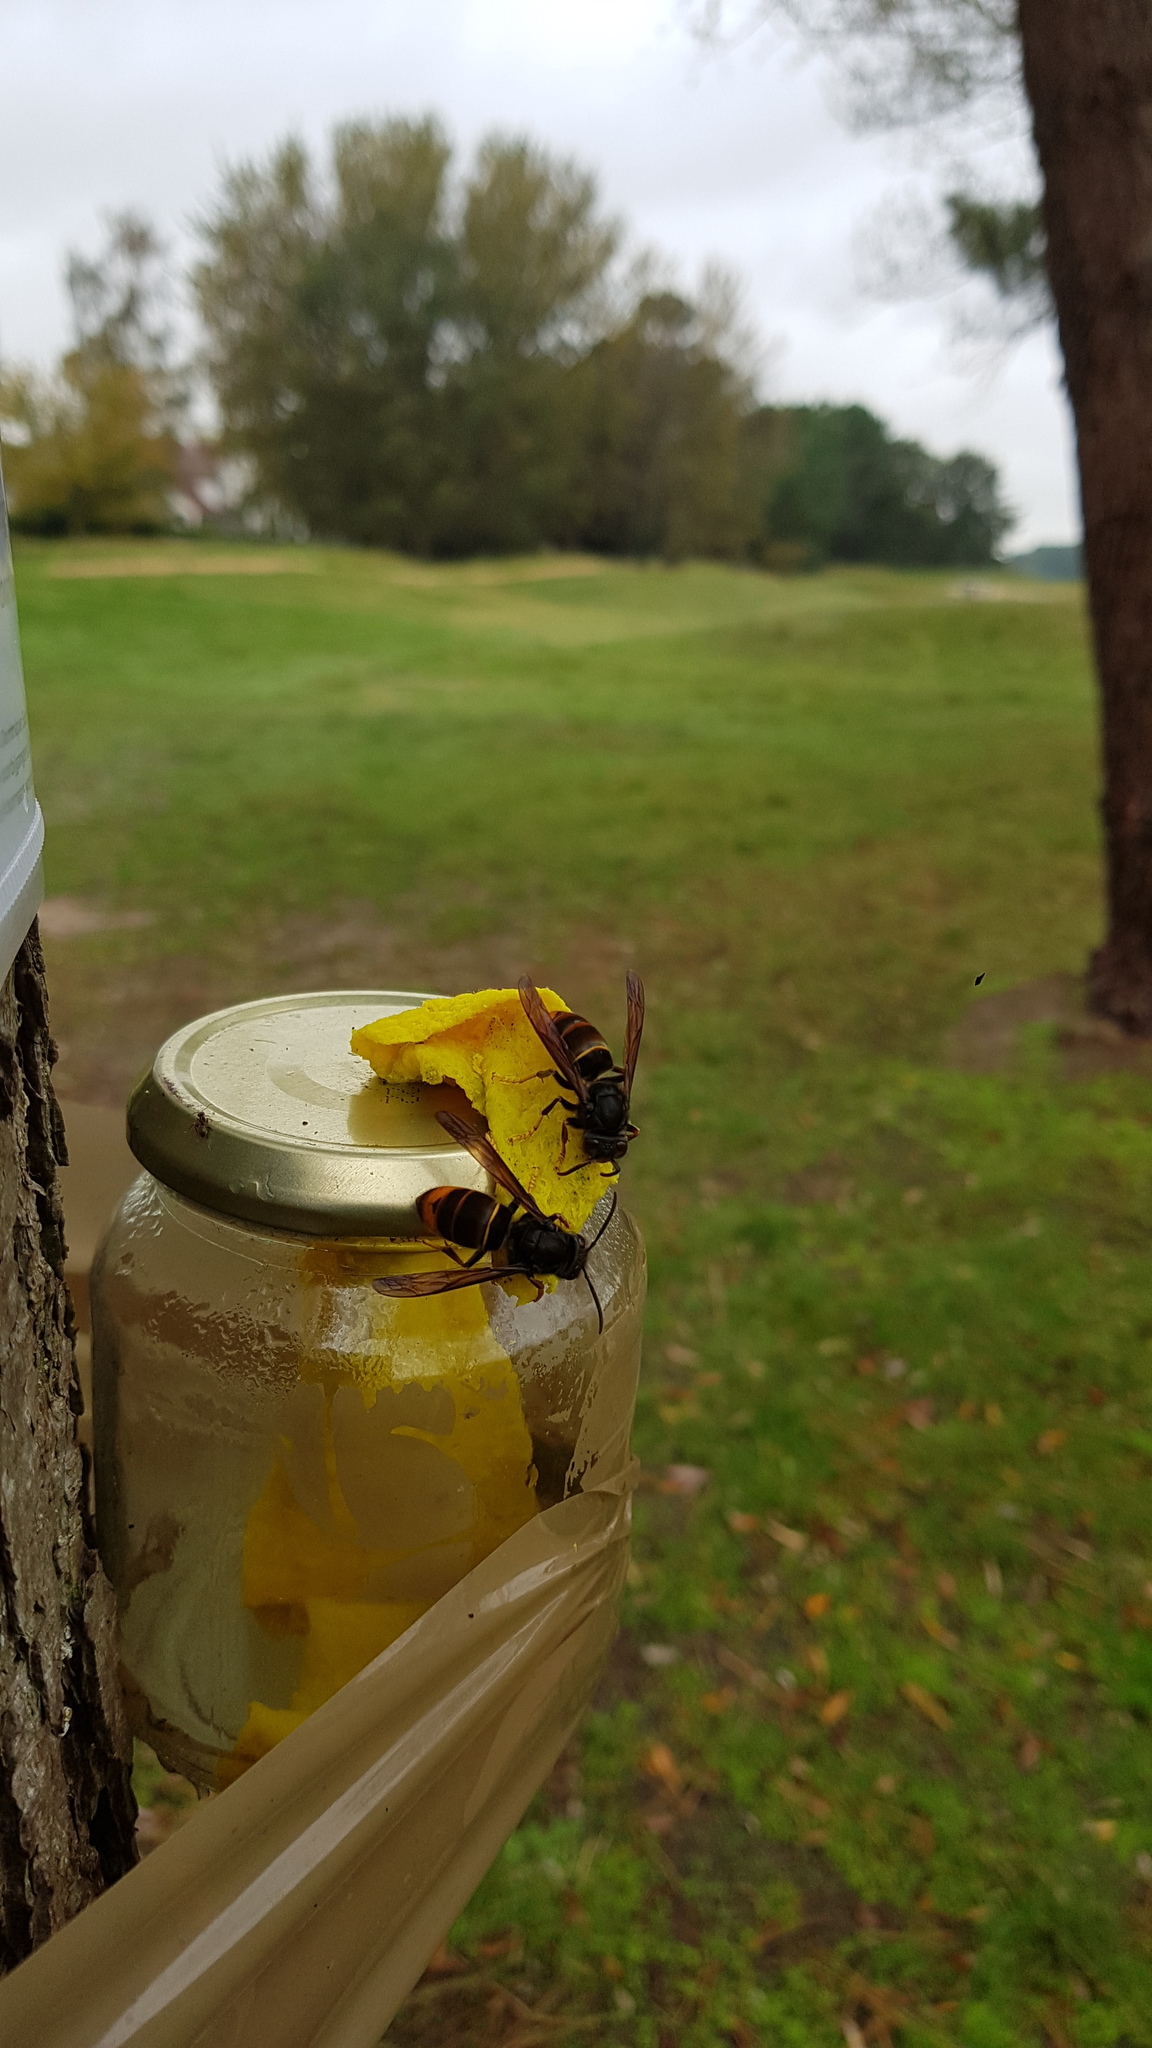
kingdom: Animalia
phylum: Arthropoda
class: Insecta
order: Hymenoptera
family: Vespidae
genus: Vespa
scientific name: Vespa velutina
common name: Asian hornet
